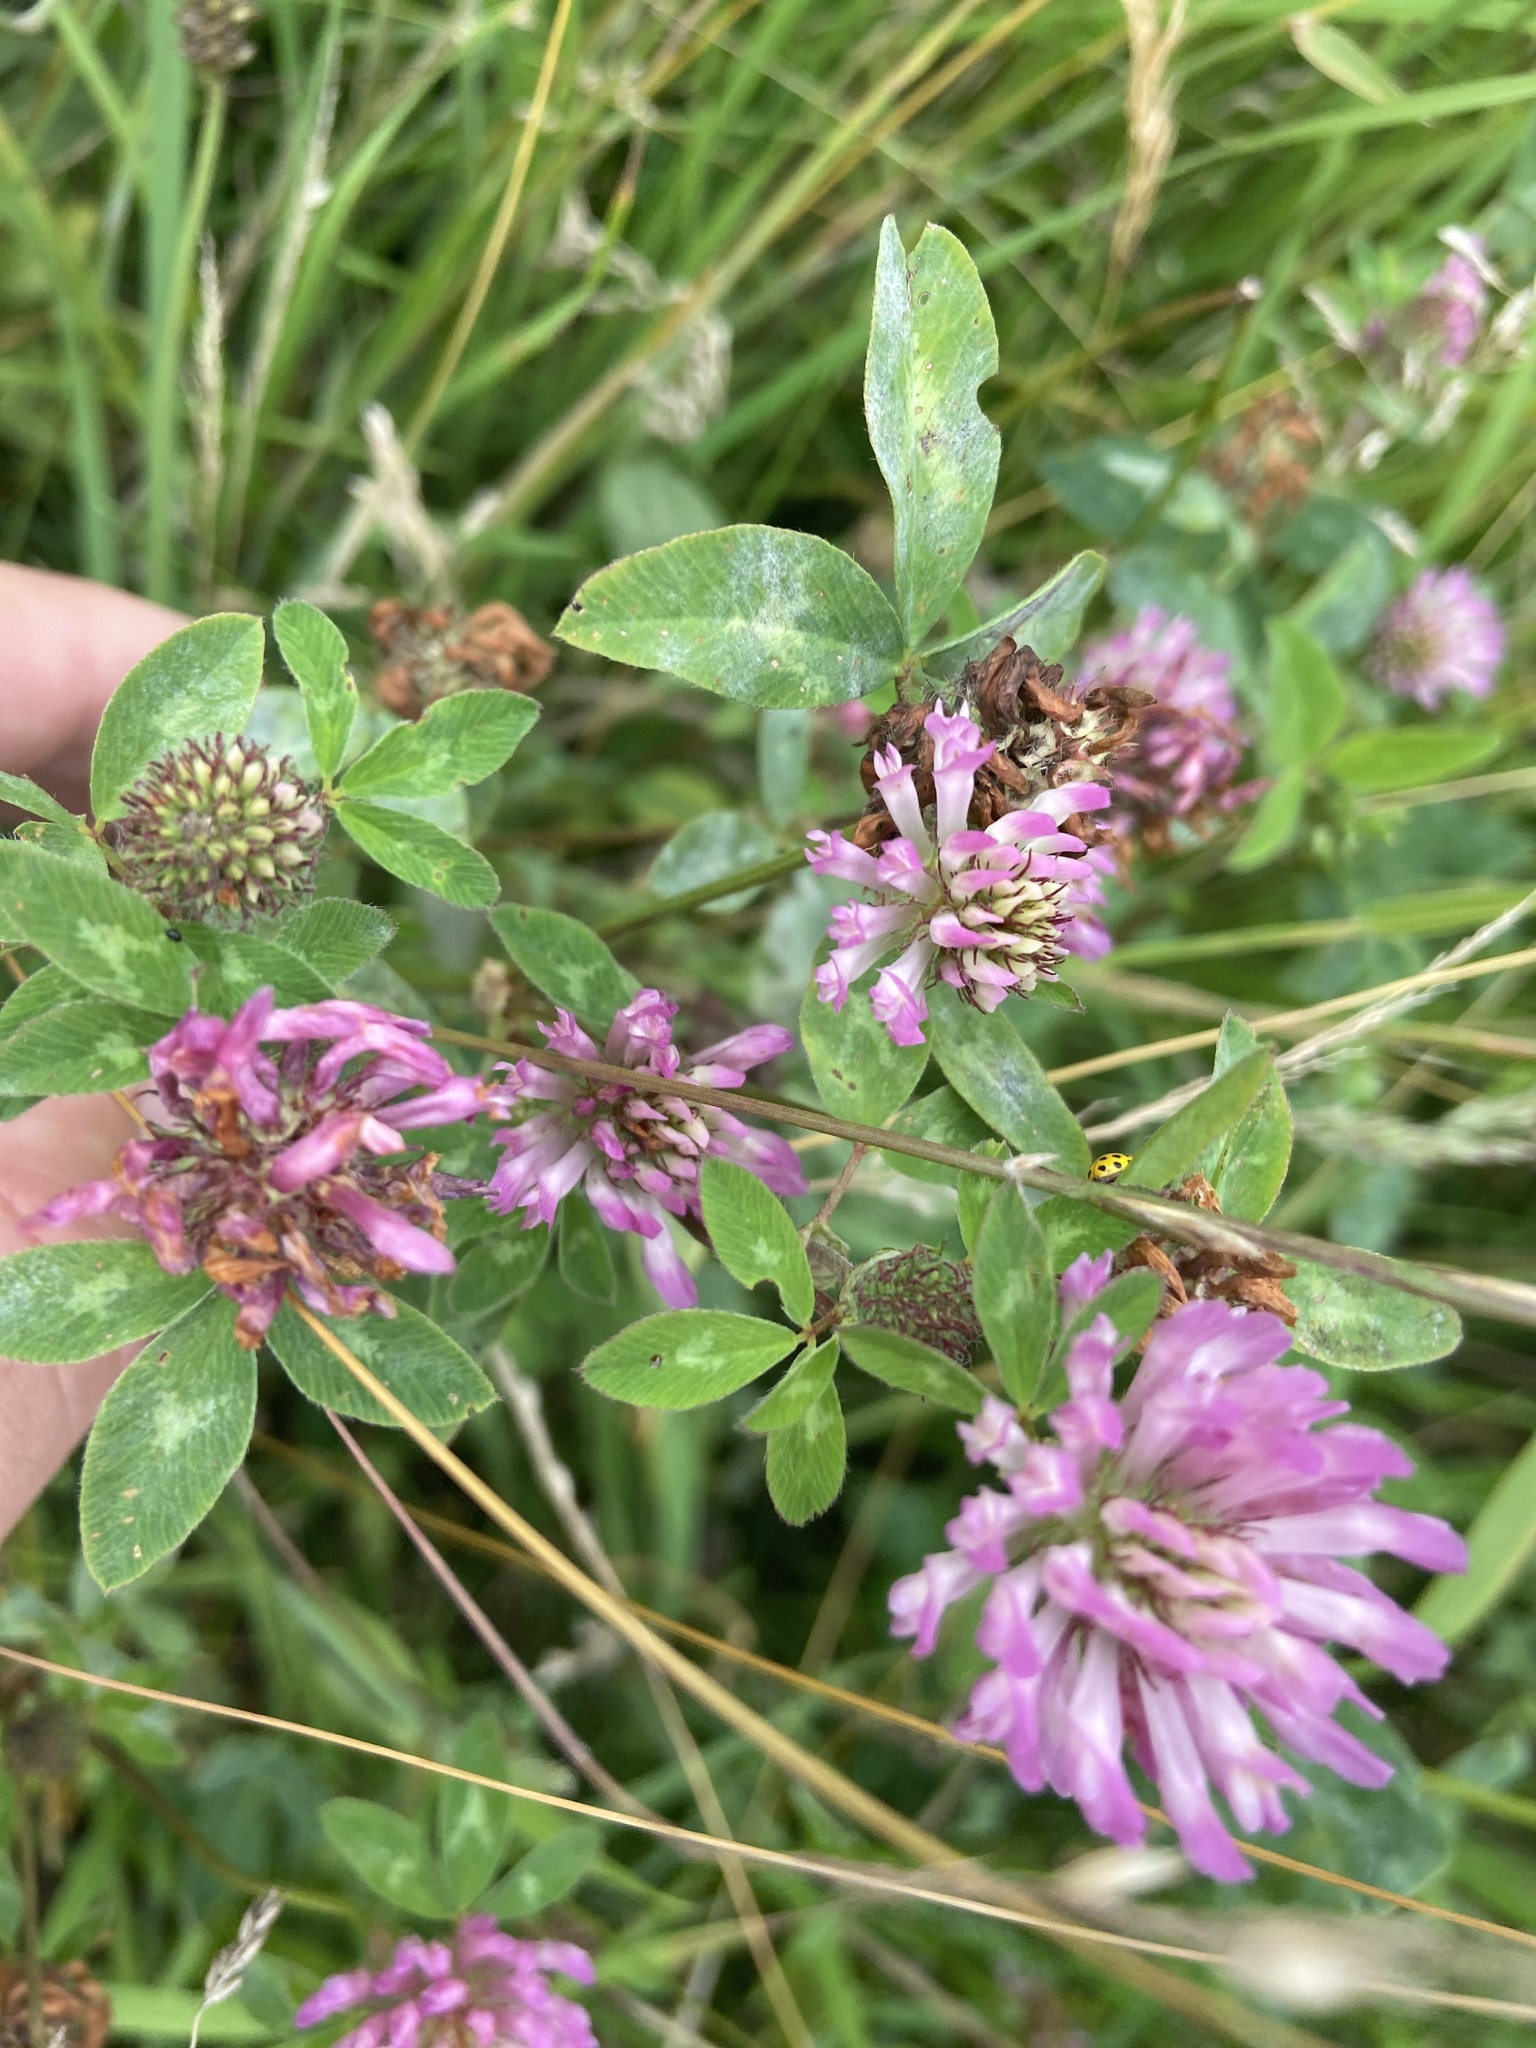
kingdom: Plantae
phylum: Tracheophyta
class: Magnoliopsida
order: Fabales
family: Fabaceae
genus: Trifolium
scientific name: Trifolium pratense
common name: Red clover
